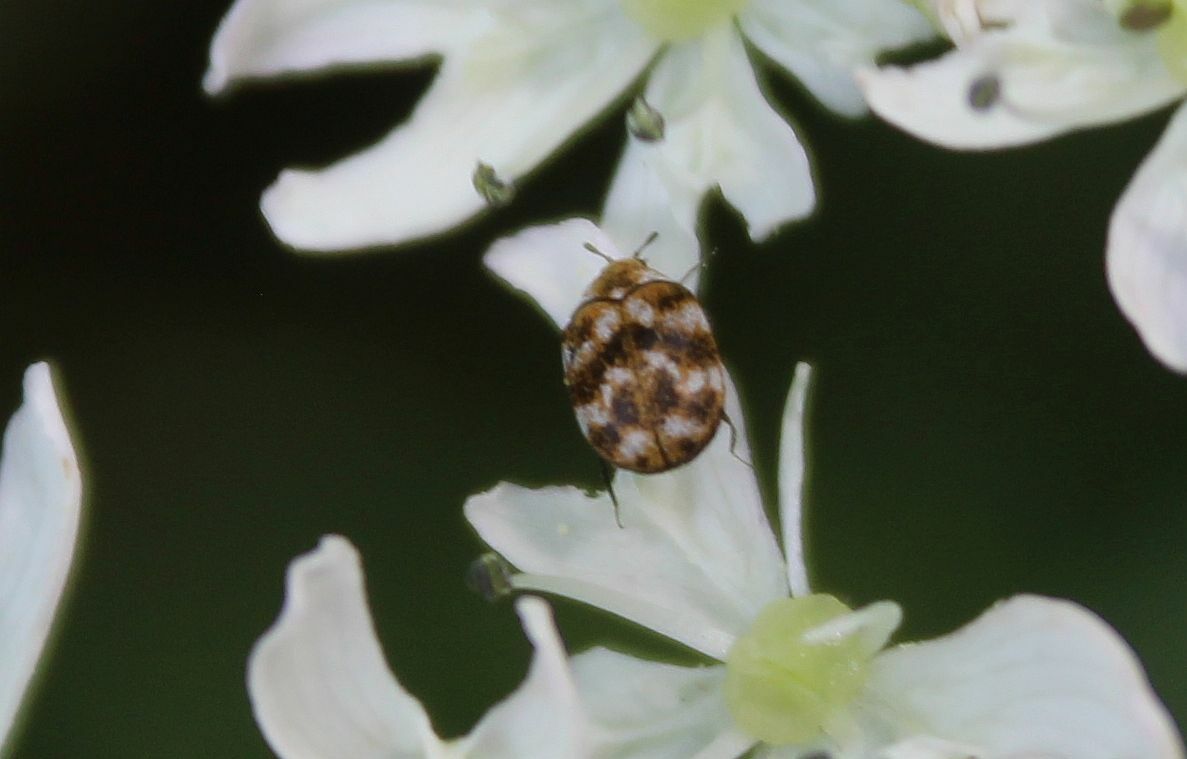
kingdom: Animalia
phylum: Arthropoda
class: Insecta
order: Coleoptera
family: Dermestidae
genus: Anthrenus
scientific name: Anthrenus verbasci
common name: Varied carpet beetle
